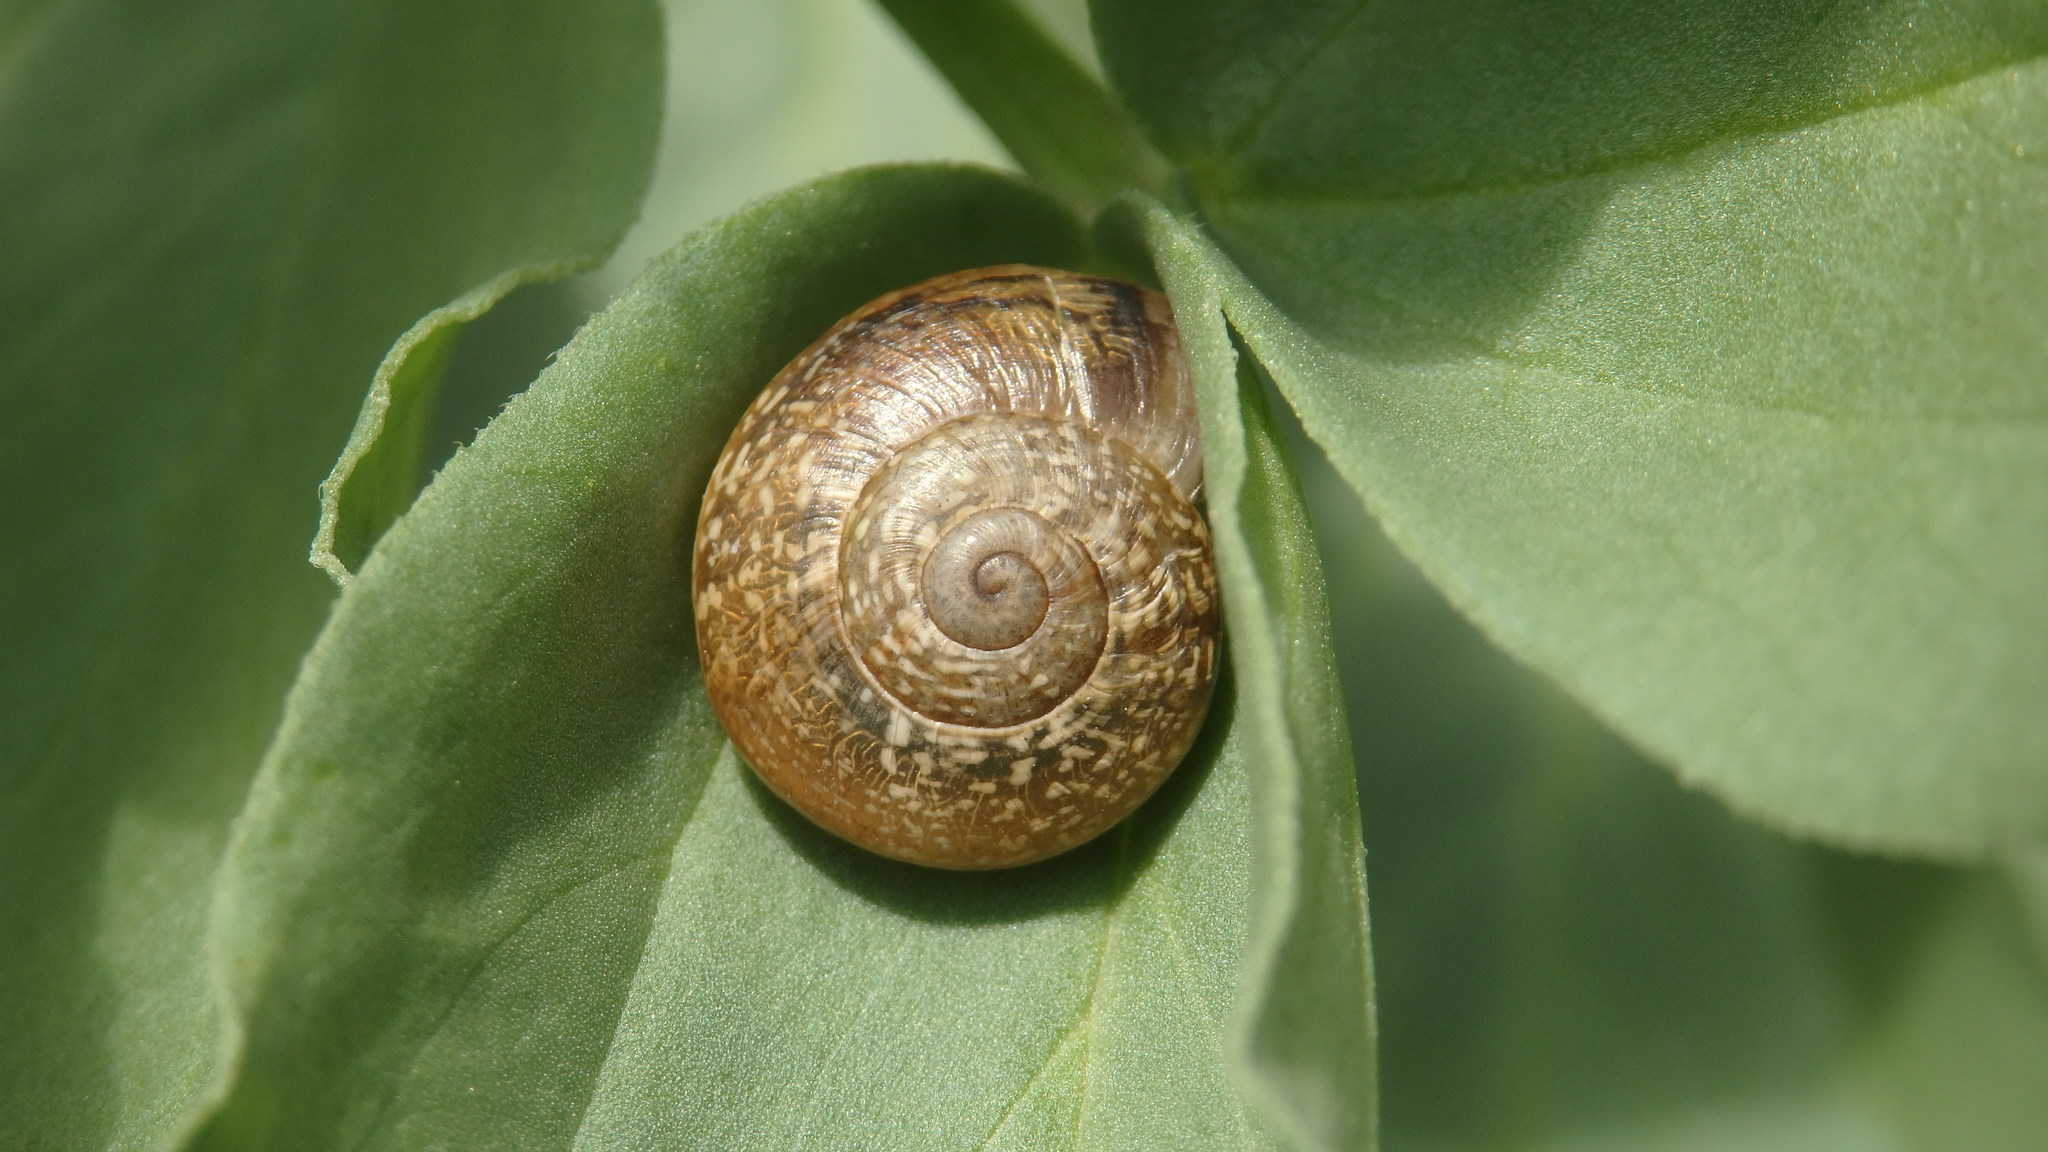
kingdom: Animalia
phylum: Mollusca
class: Gastropoda
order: Stylommatophora
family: Helicidae
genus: Otala
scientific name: Otala lactea
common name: Milk snail
